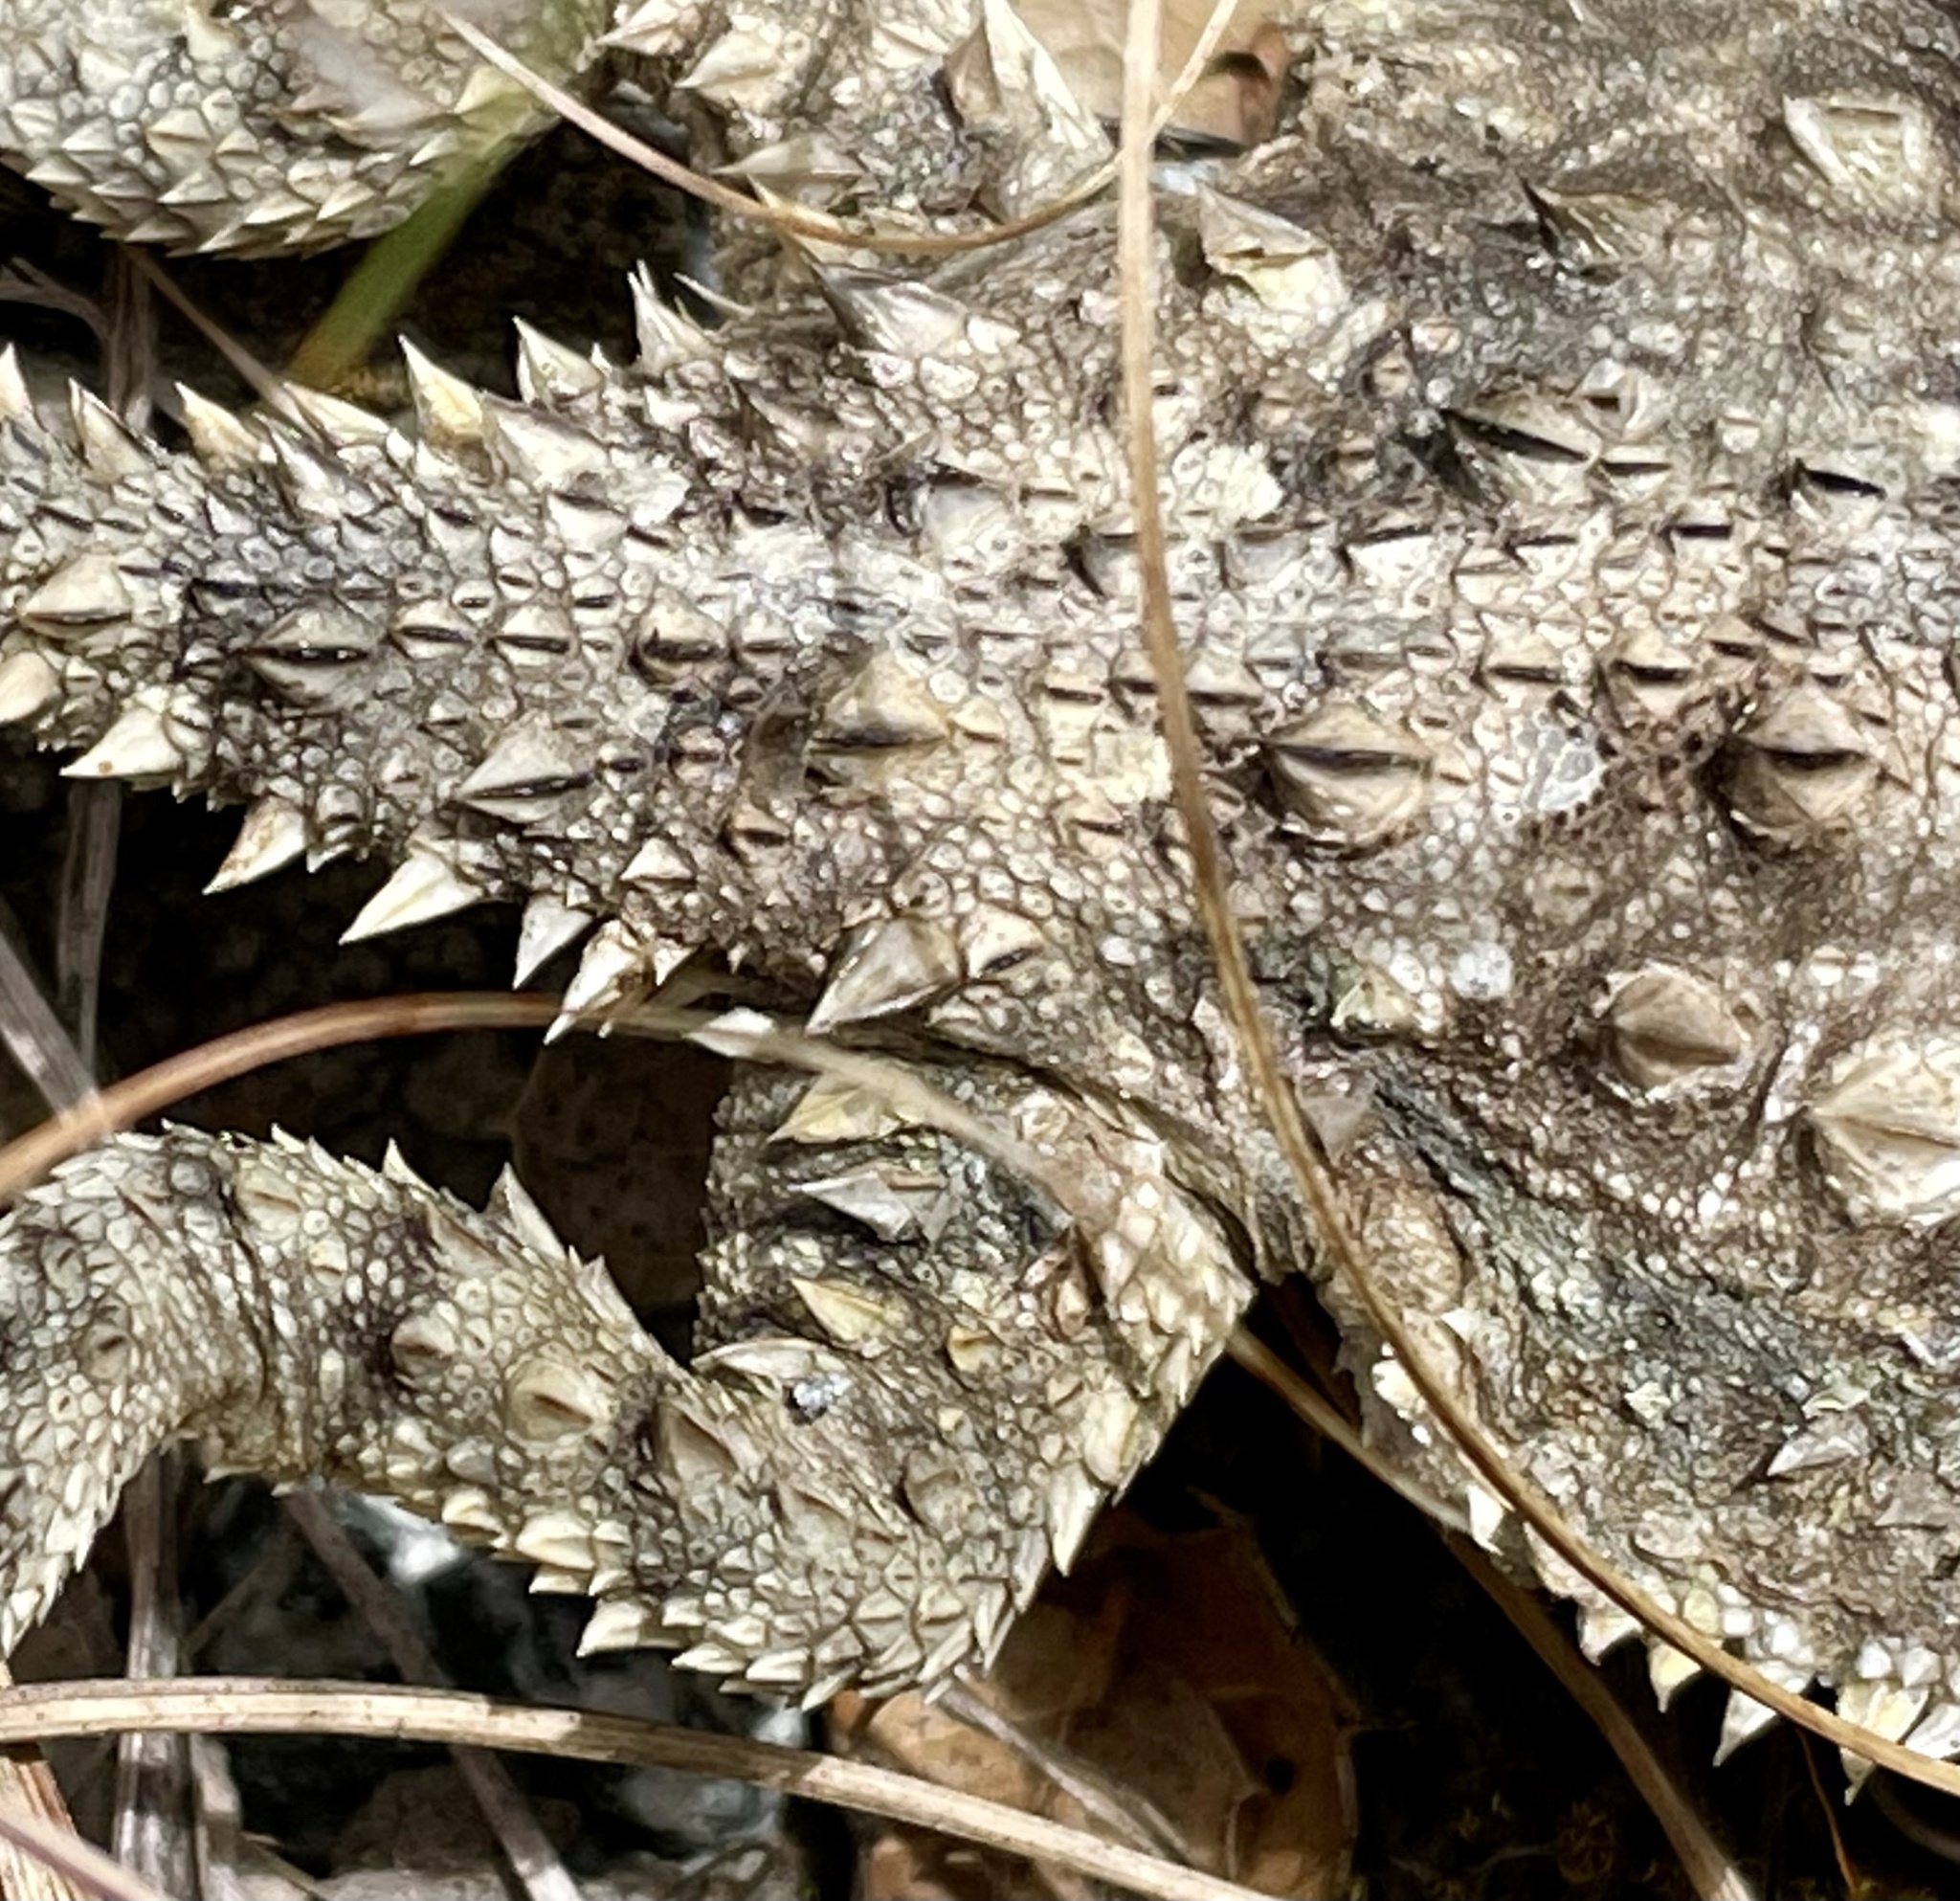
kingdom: Animalia
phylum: Chordata
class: Squamata
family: Phrynosomatidae
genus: Phrynosoma
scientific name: Phrynosoma blainvillii
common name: San diego horned lizard
